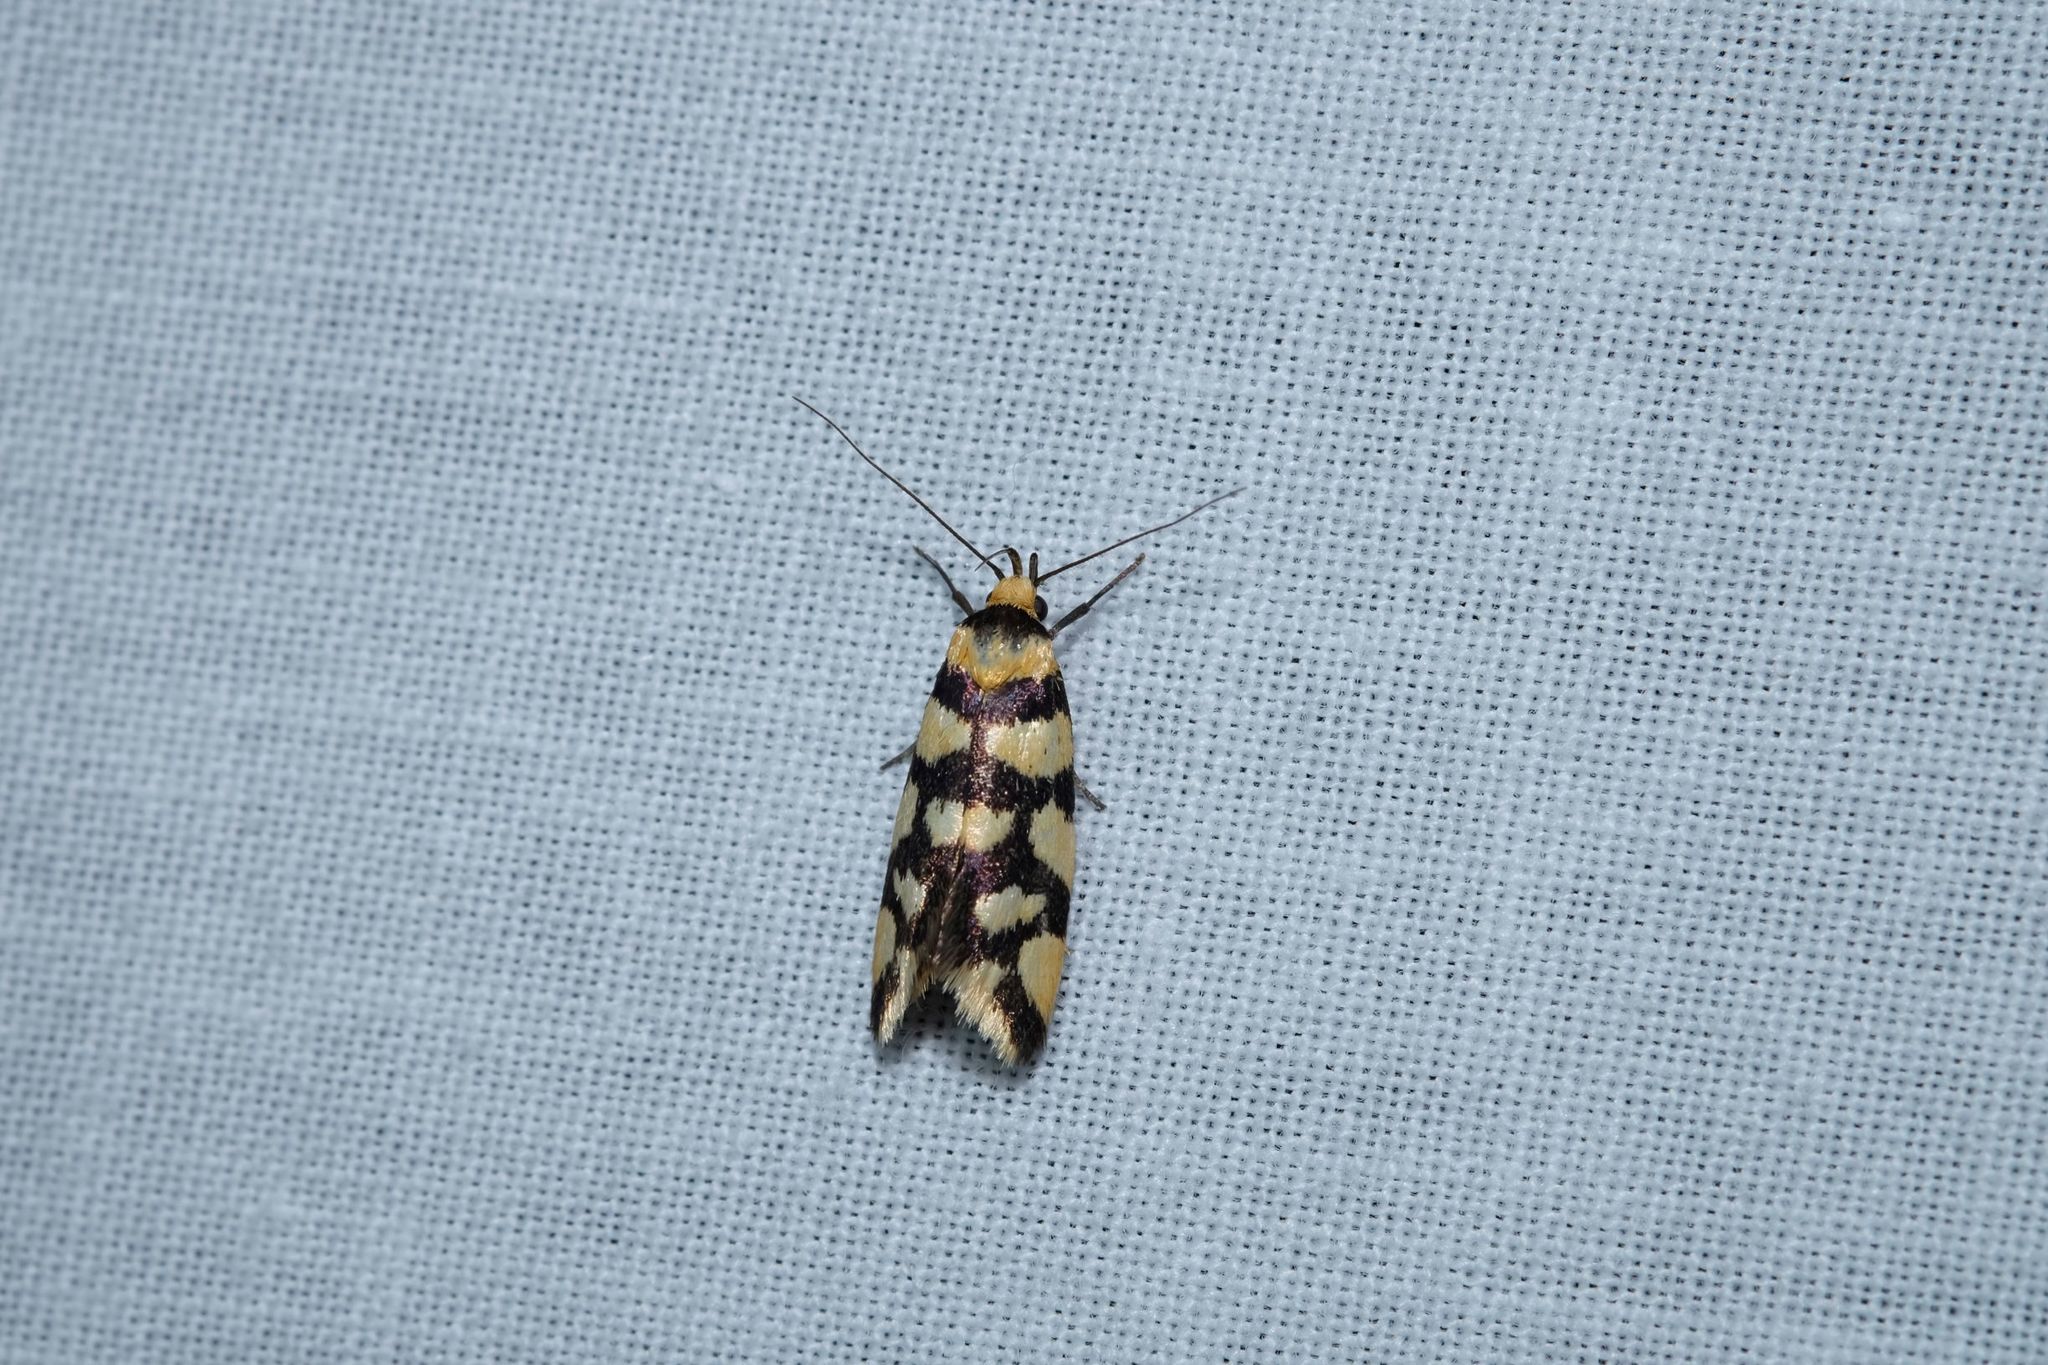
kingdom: Animalia
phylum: Arthropoda
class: Insecta
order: Lepidoptera
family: Oecophoridae
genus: Tanyzancla
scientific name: Tanyzancla argutella
